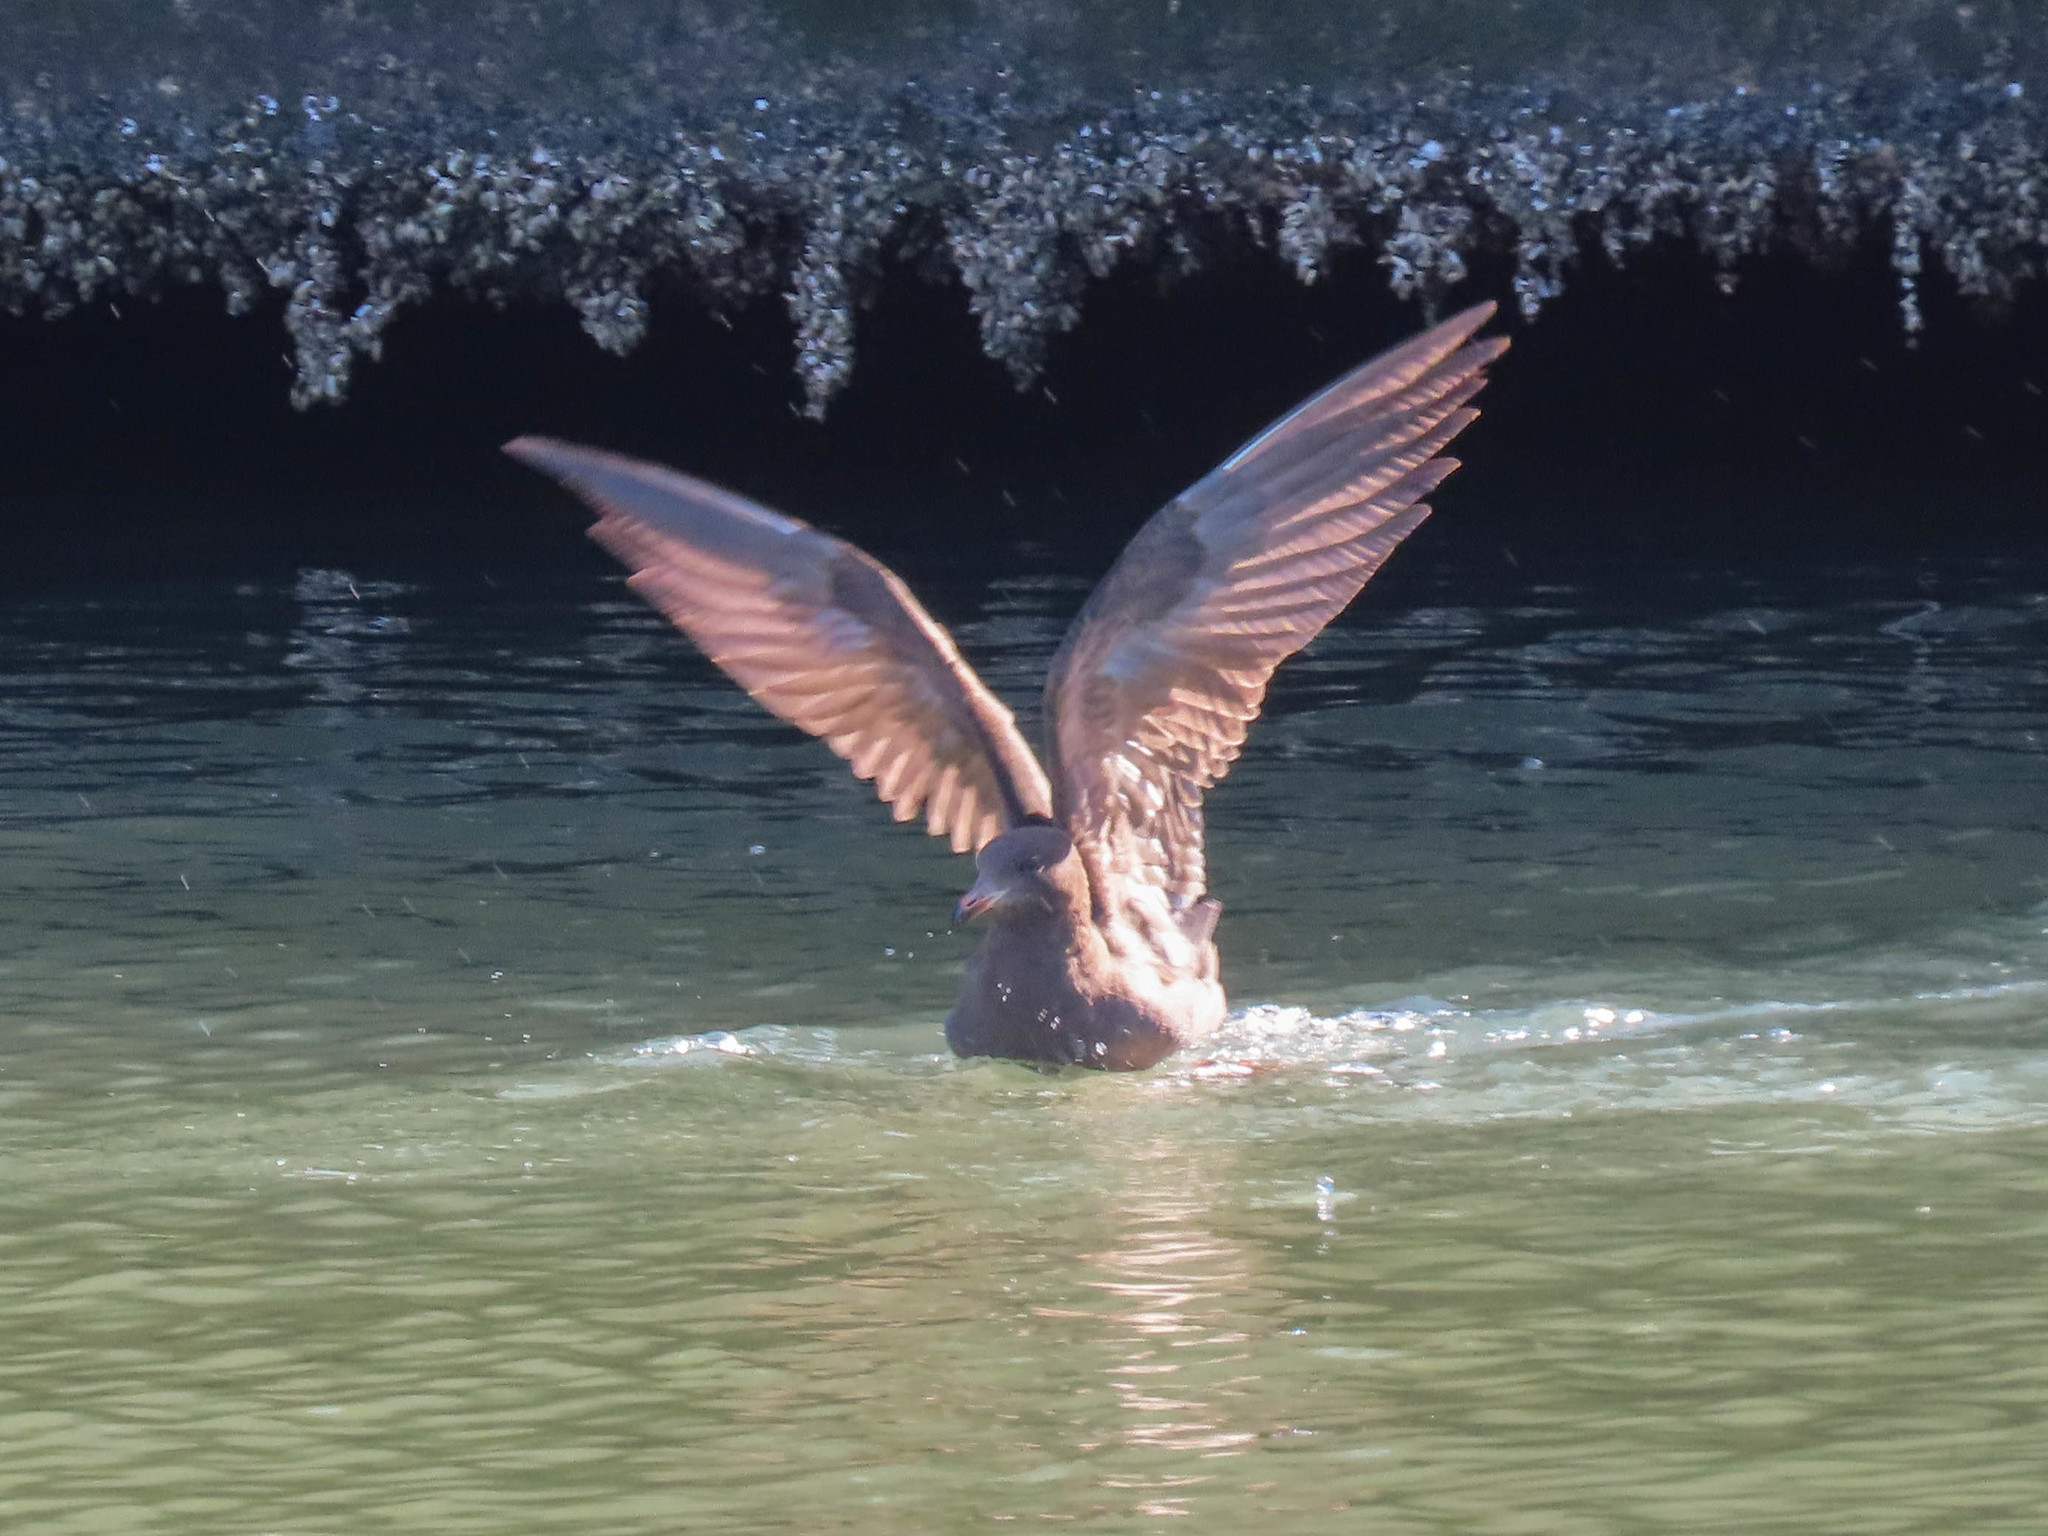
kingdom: Animalia
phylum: Chordata
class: Aves
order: Charadriiformes
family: Laridae
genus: Larus
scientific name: Larus heermanni
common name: Heermann's gull
